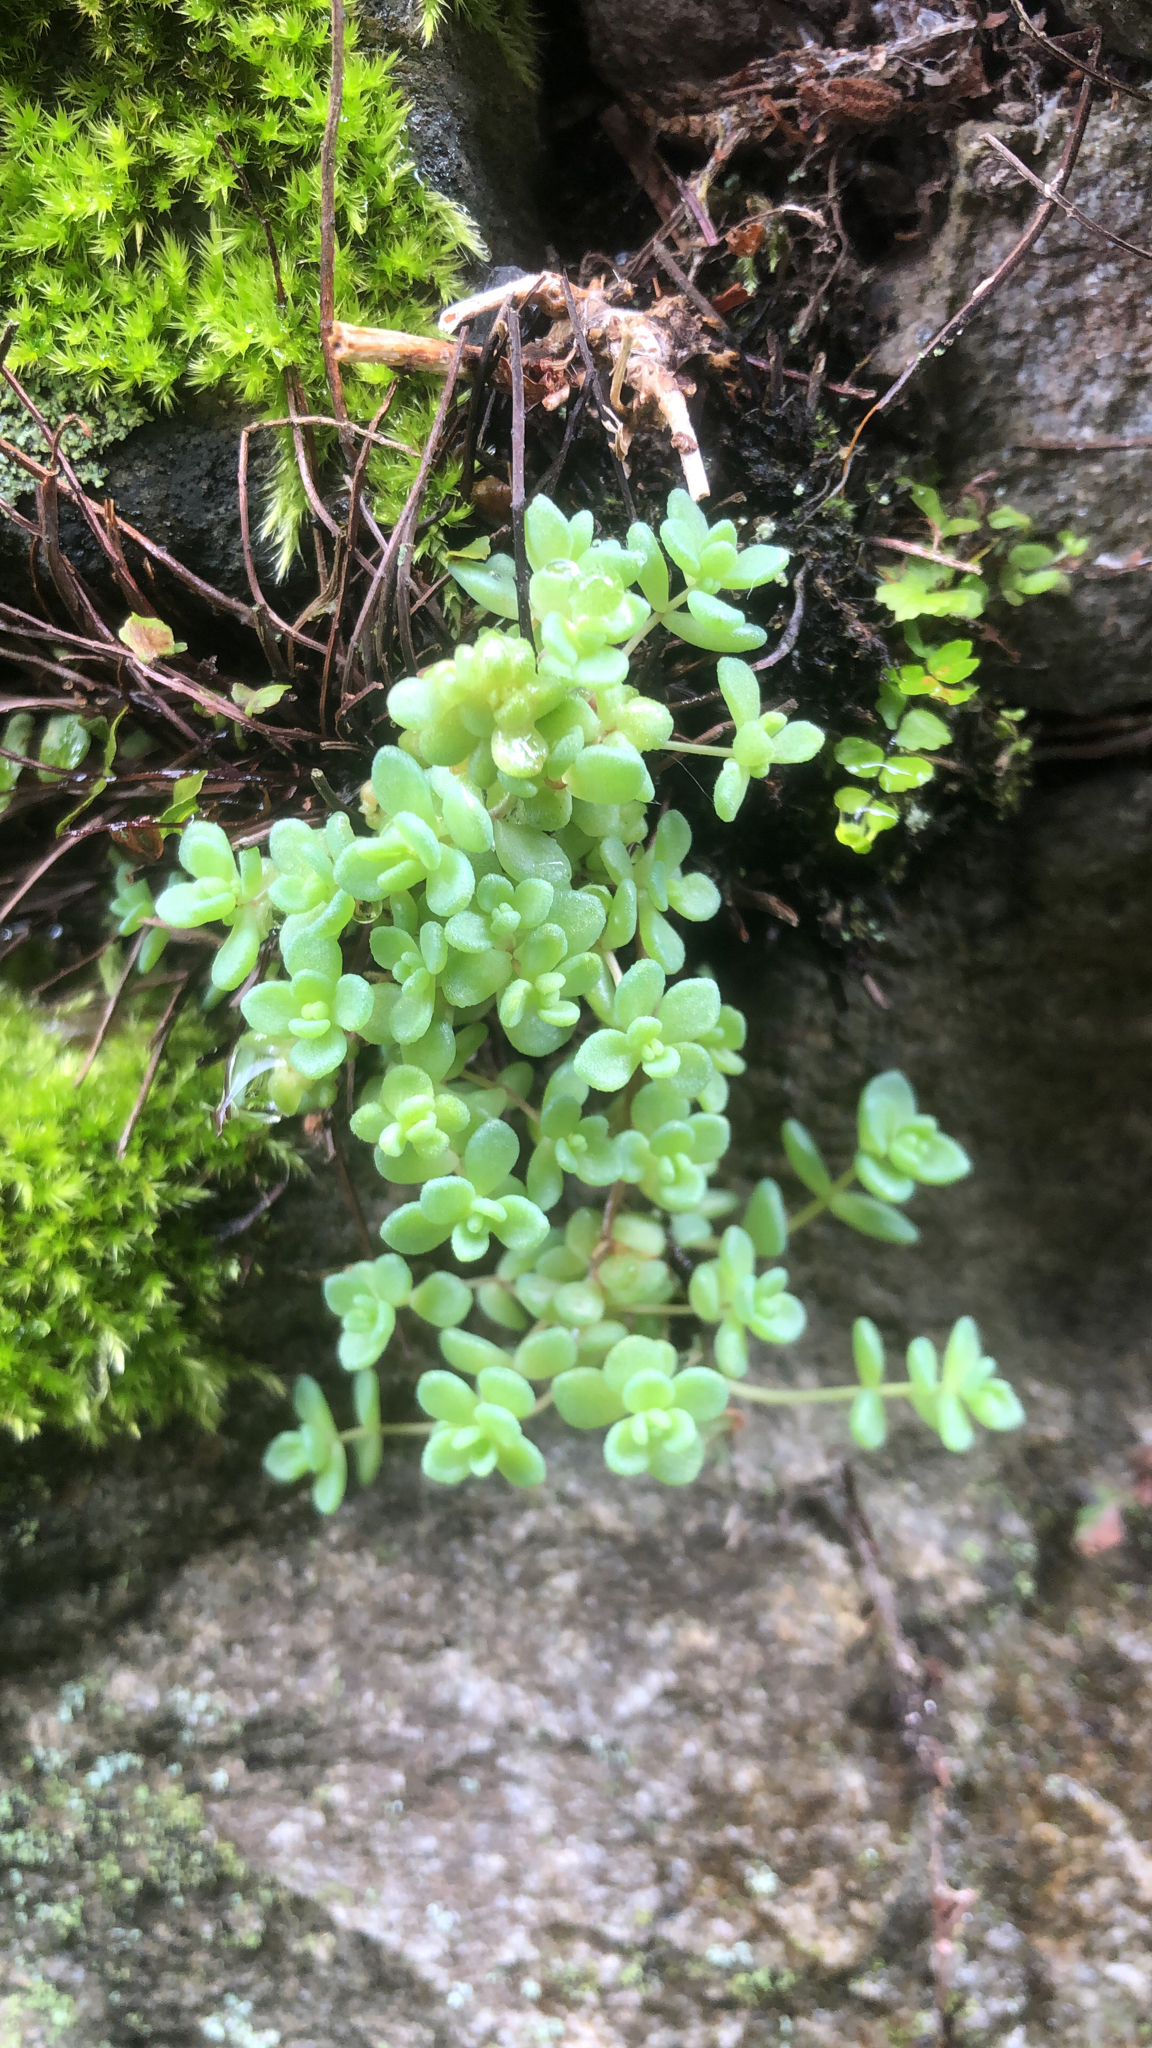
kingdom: Plantae
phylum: Tracheophyta
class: Magnoliopsida
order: Saxifragales
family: Crassulaceae
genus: Sedum
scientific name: Sedum dasyphyllum
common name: Thick-leaf stonecrop
